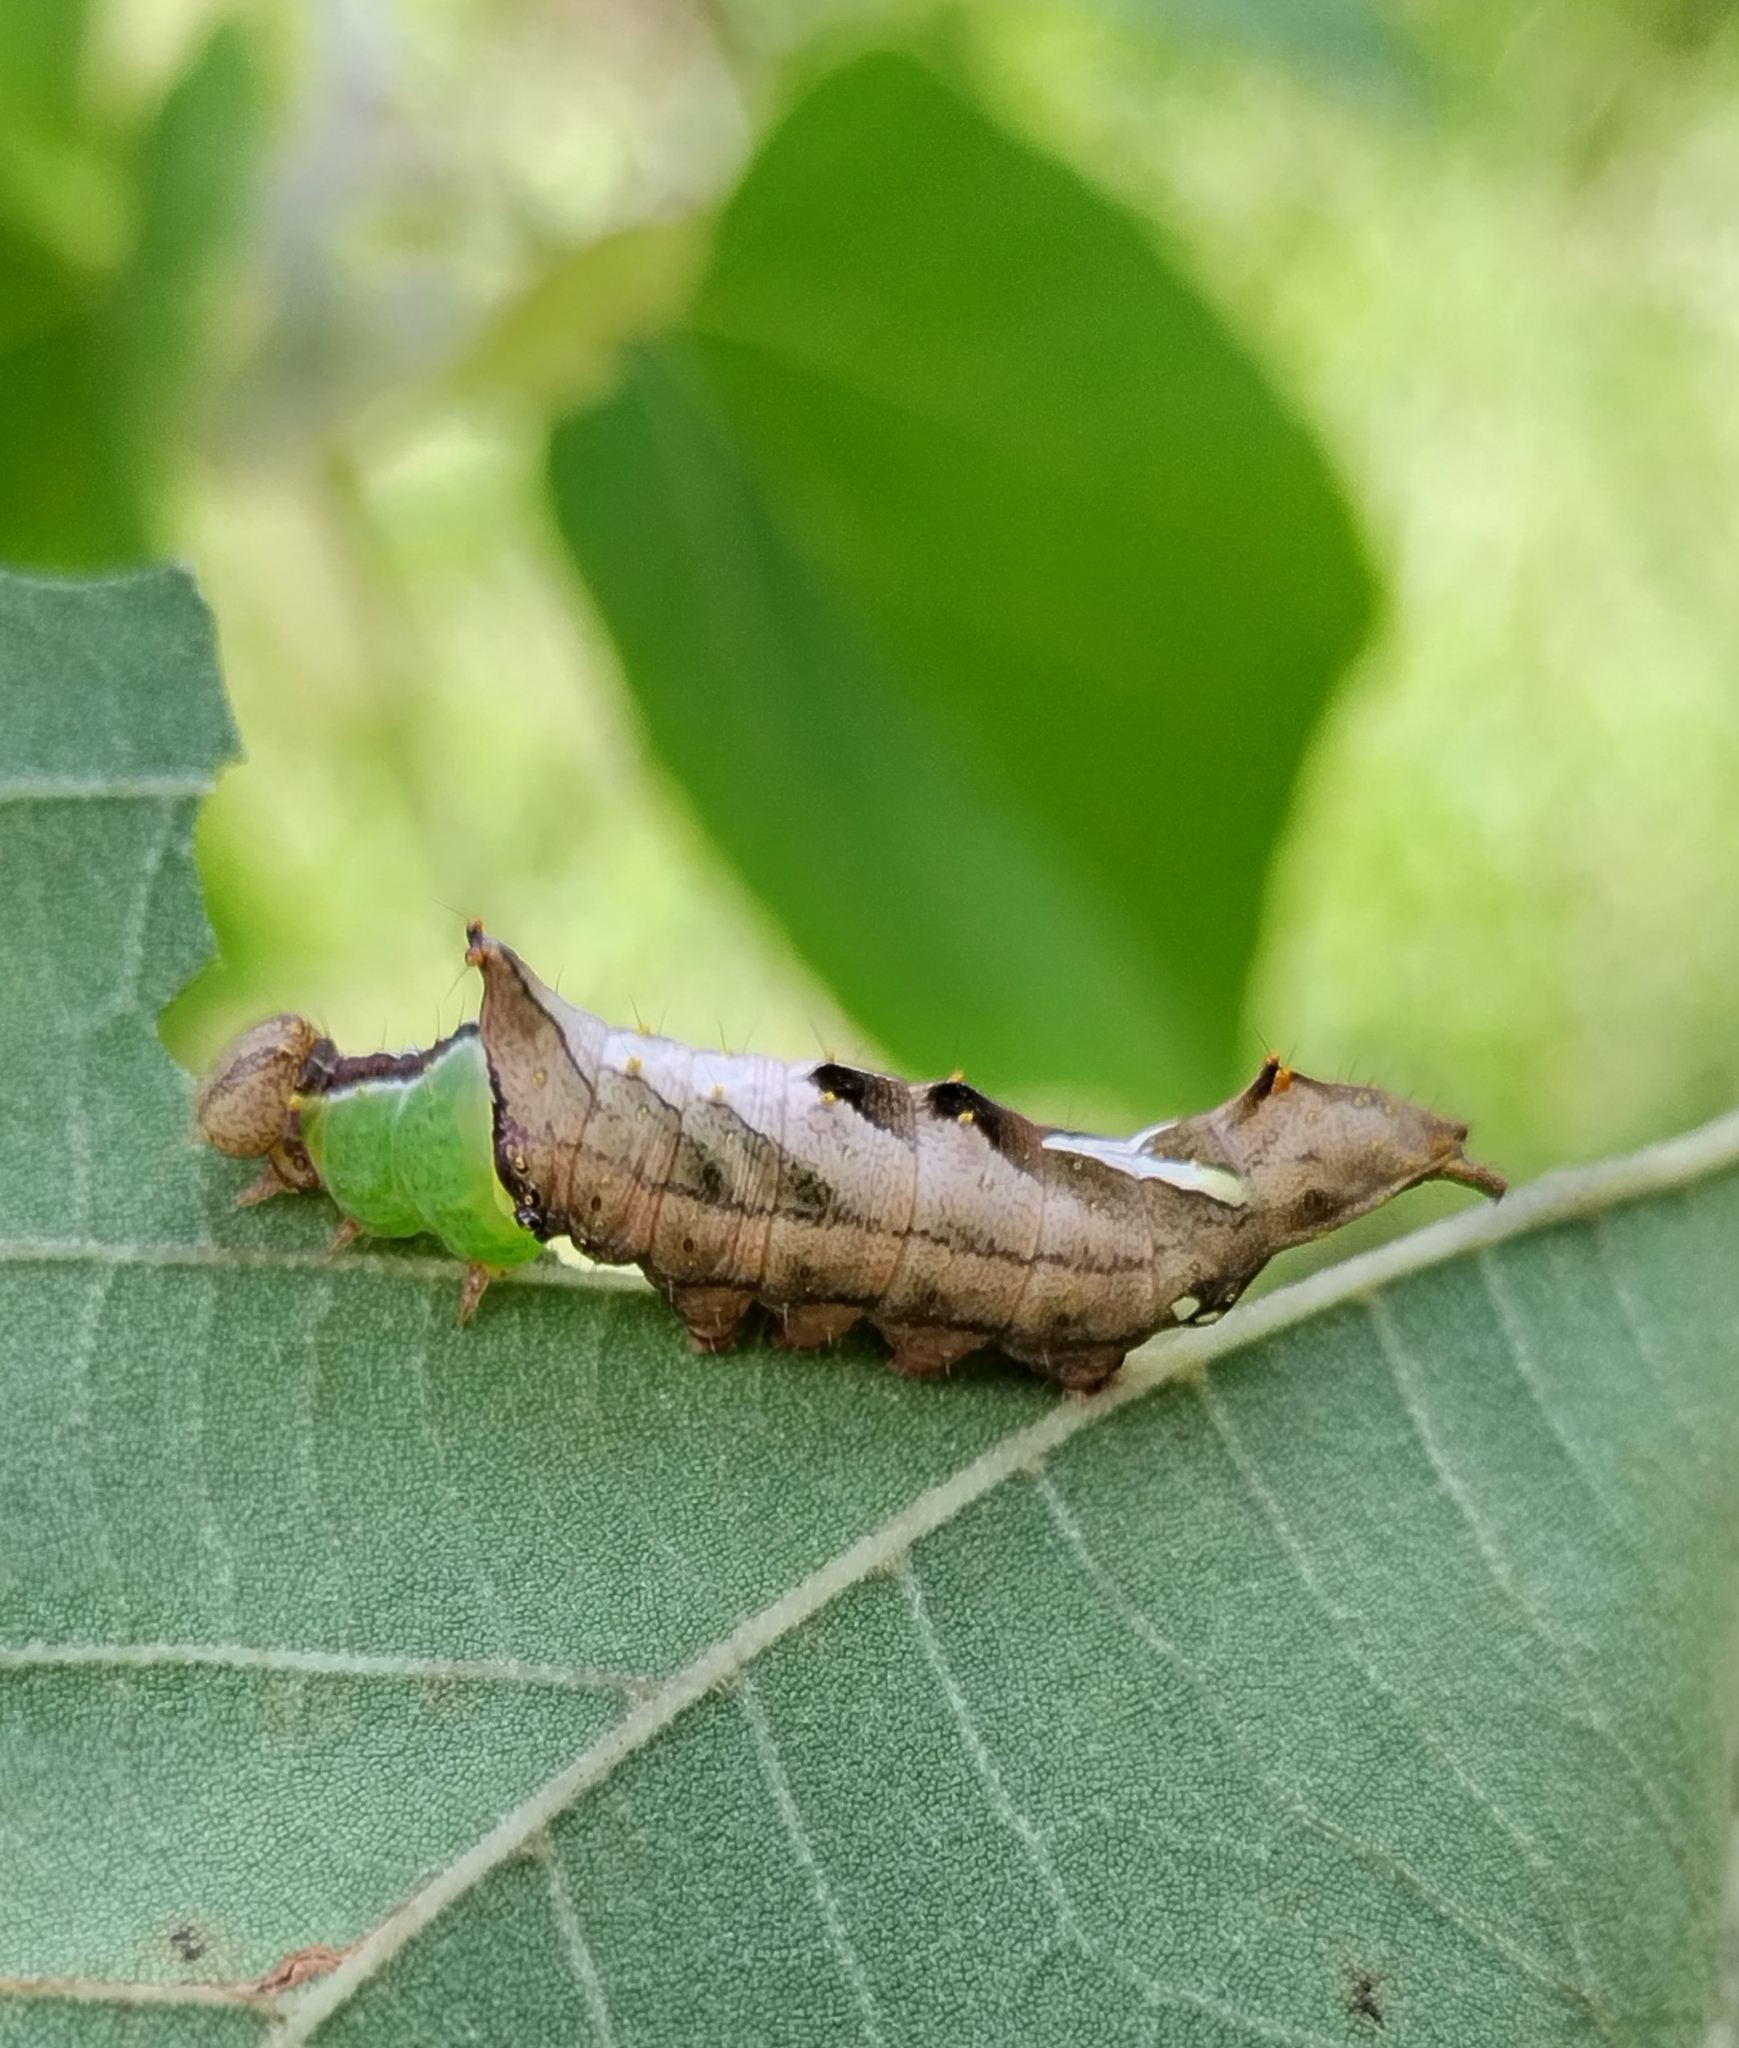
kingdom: Animalia
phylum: Arthropoda
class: Insecta
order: Lepidoptera
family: Notodontidae
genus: Schizura
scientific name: Schizura
